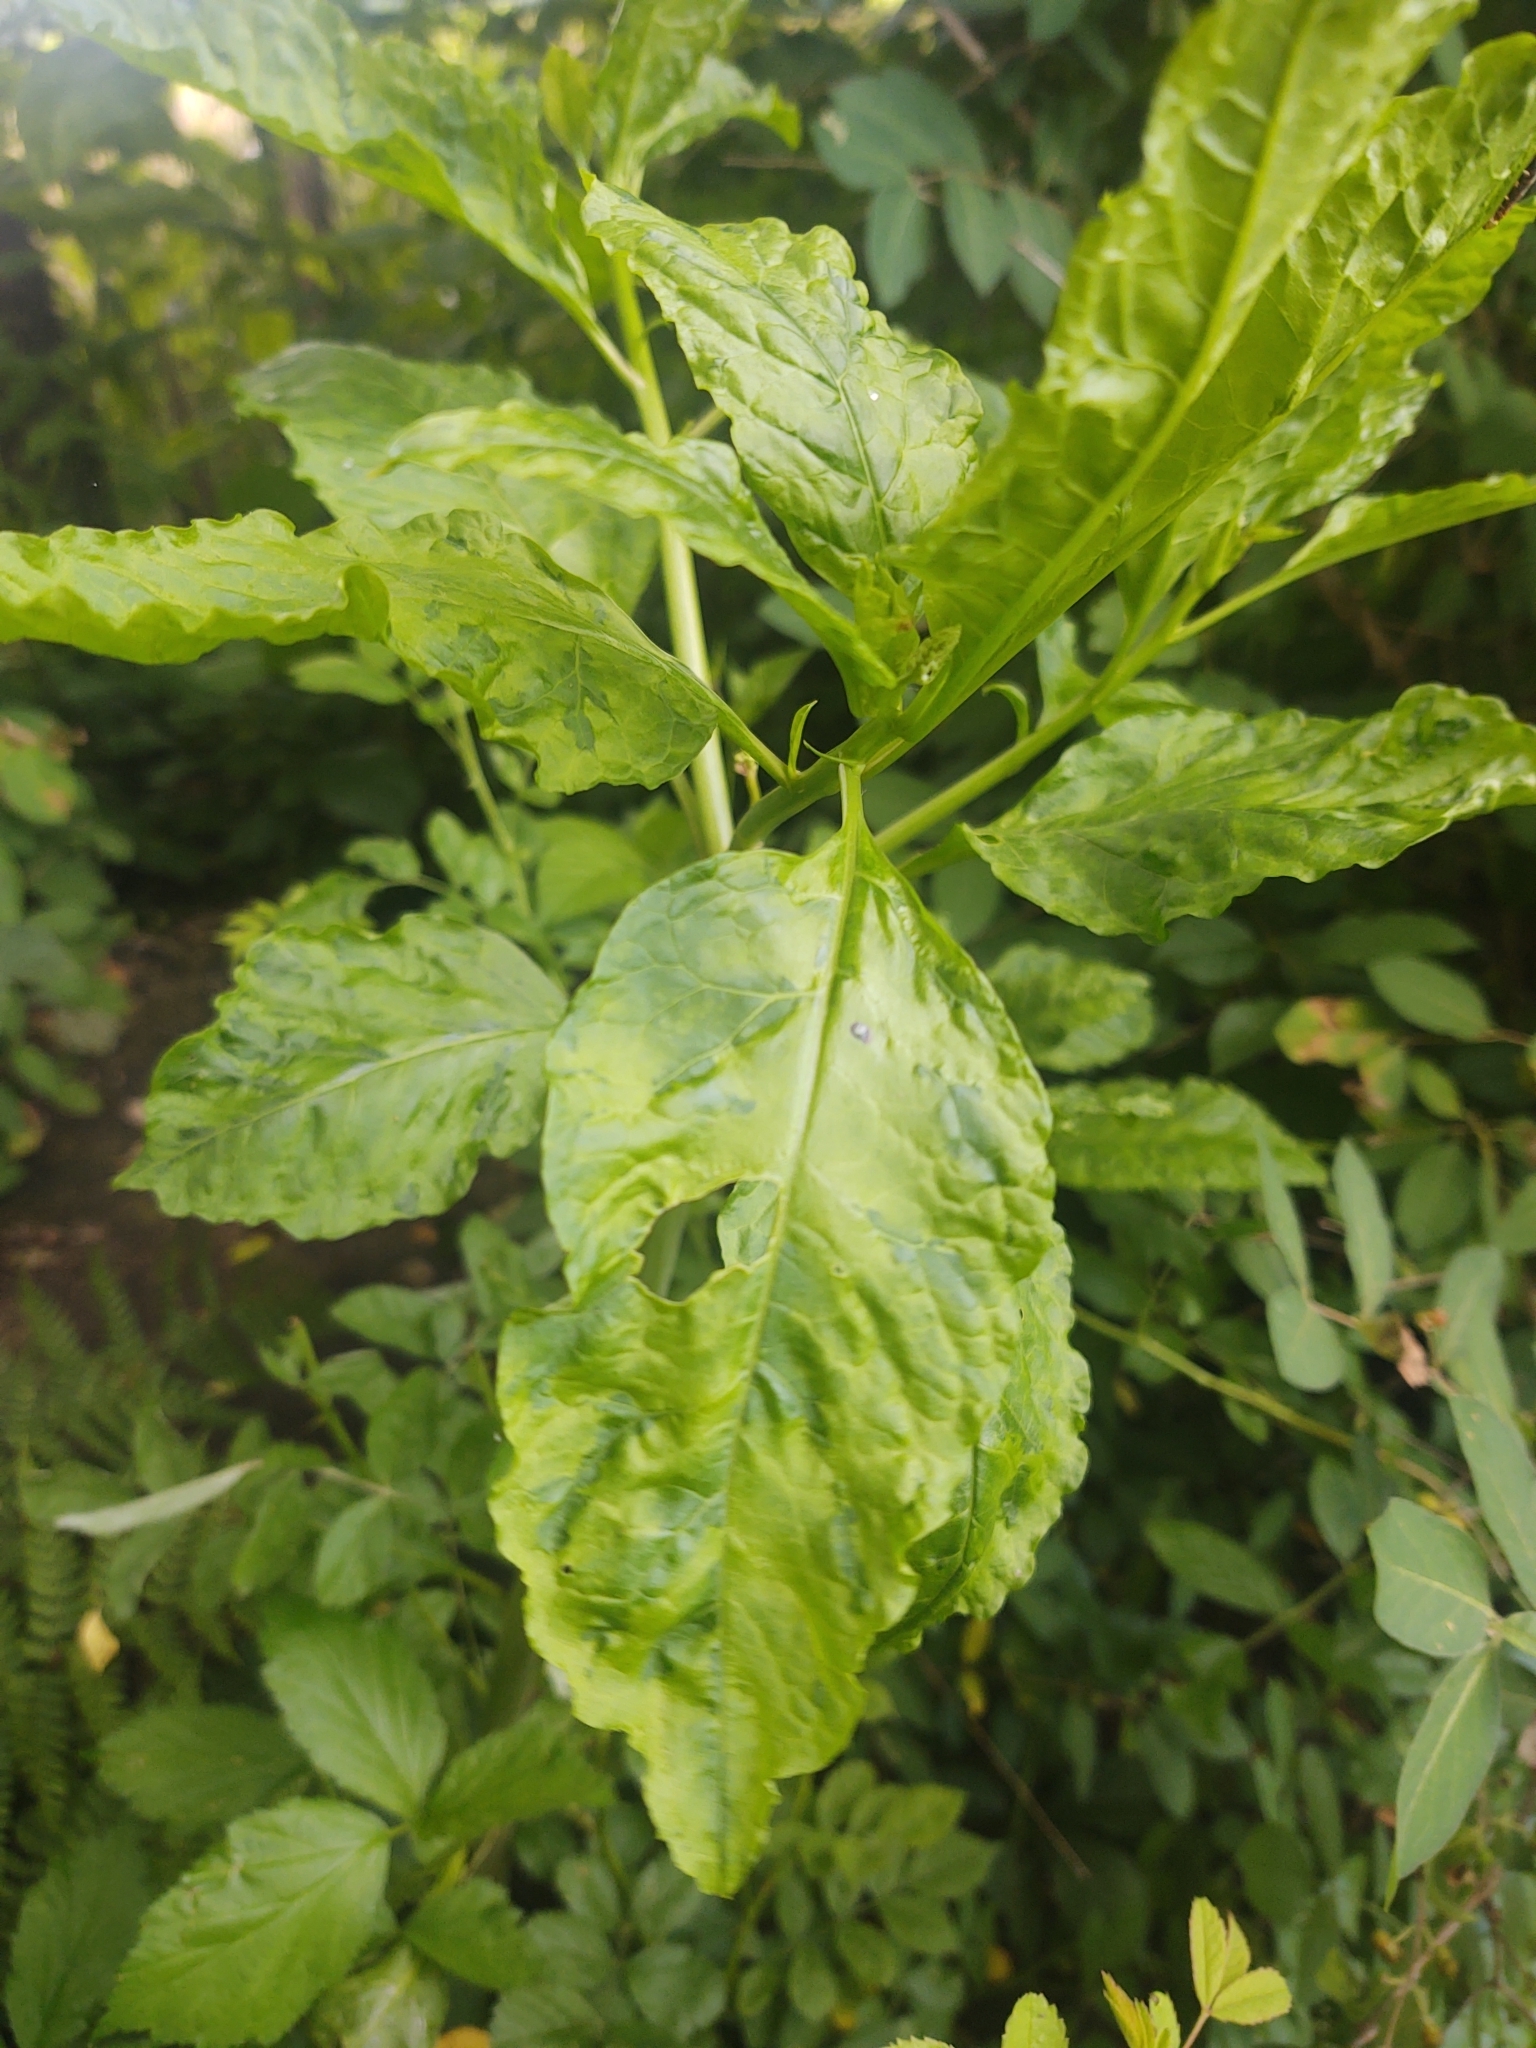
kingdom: Viruses
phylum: Pisuviricota
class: Stelpaviricetes
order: Patatavirales
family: Potyviridae
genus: Potyvirus
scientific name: Potyvirus Pokeweed mosaic virus
